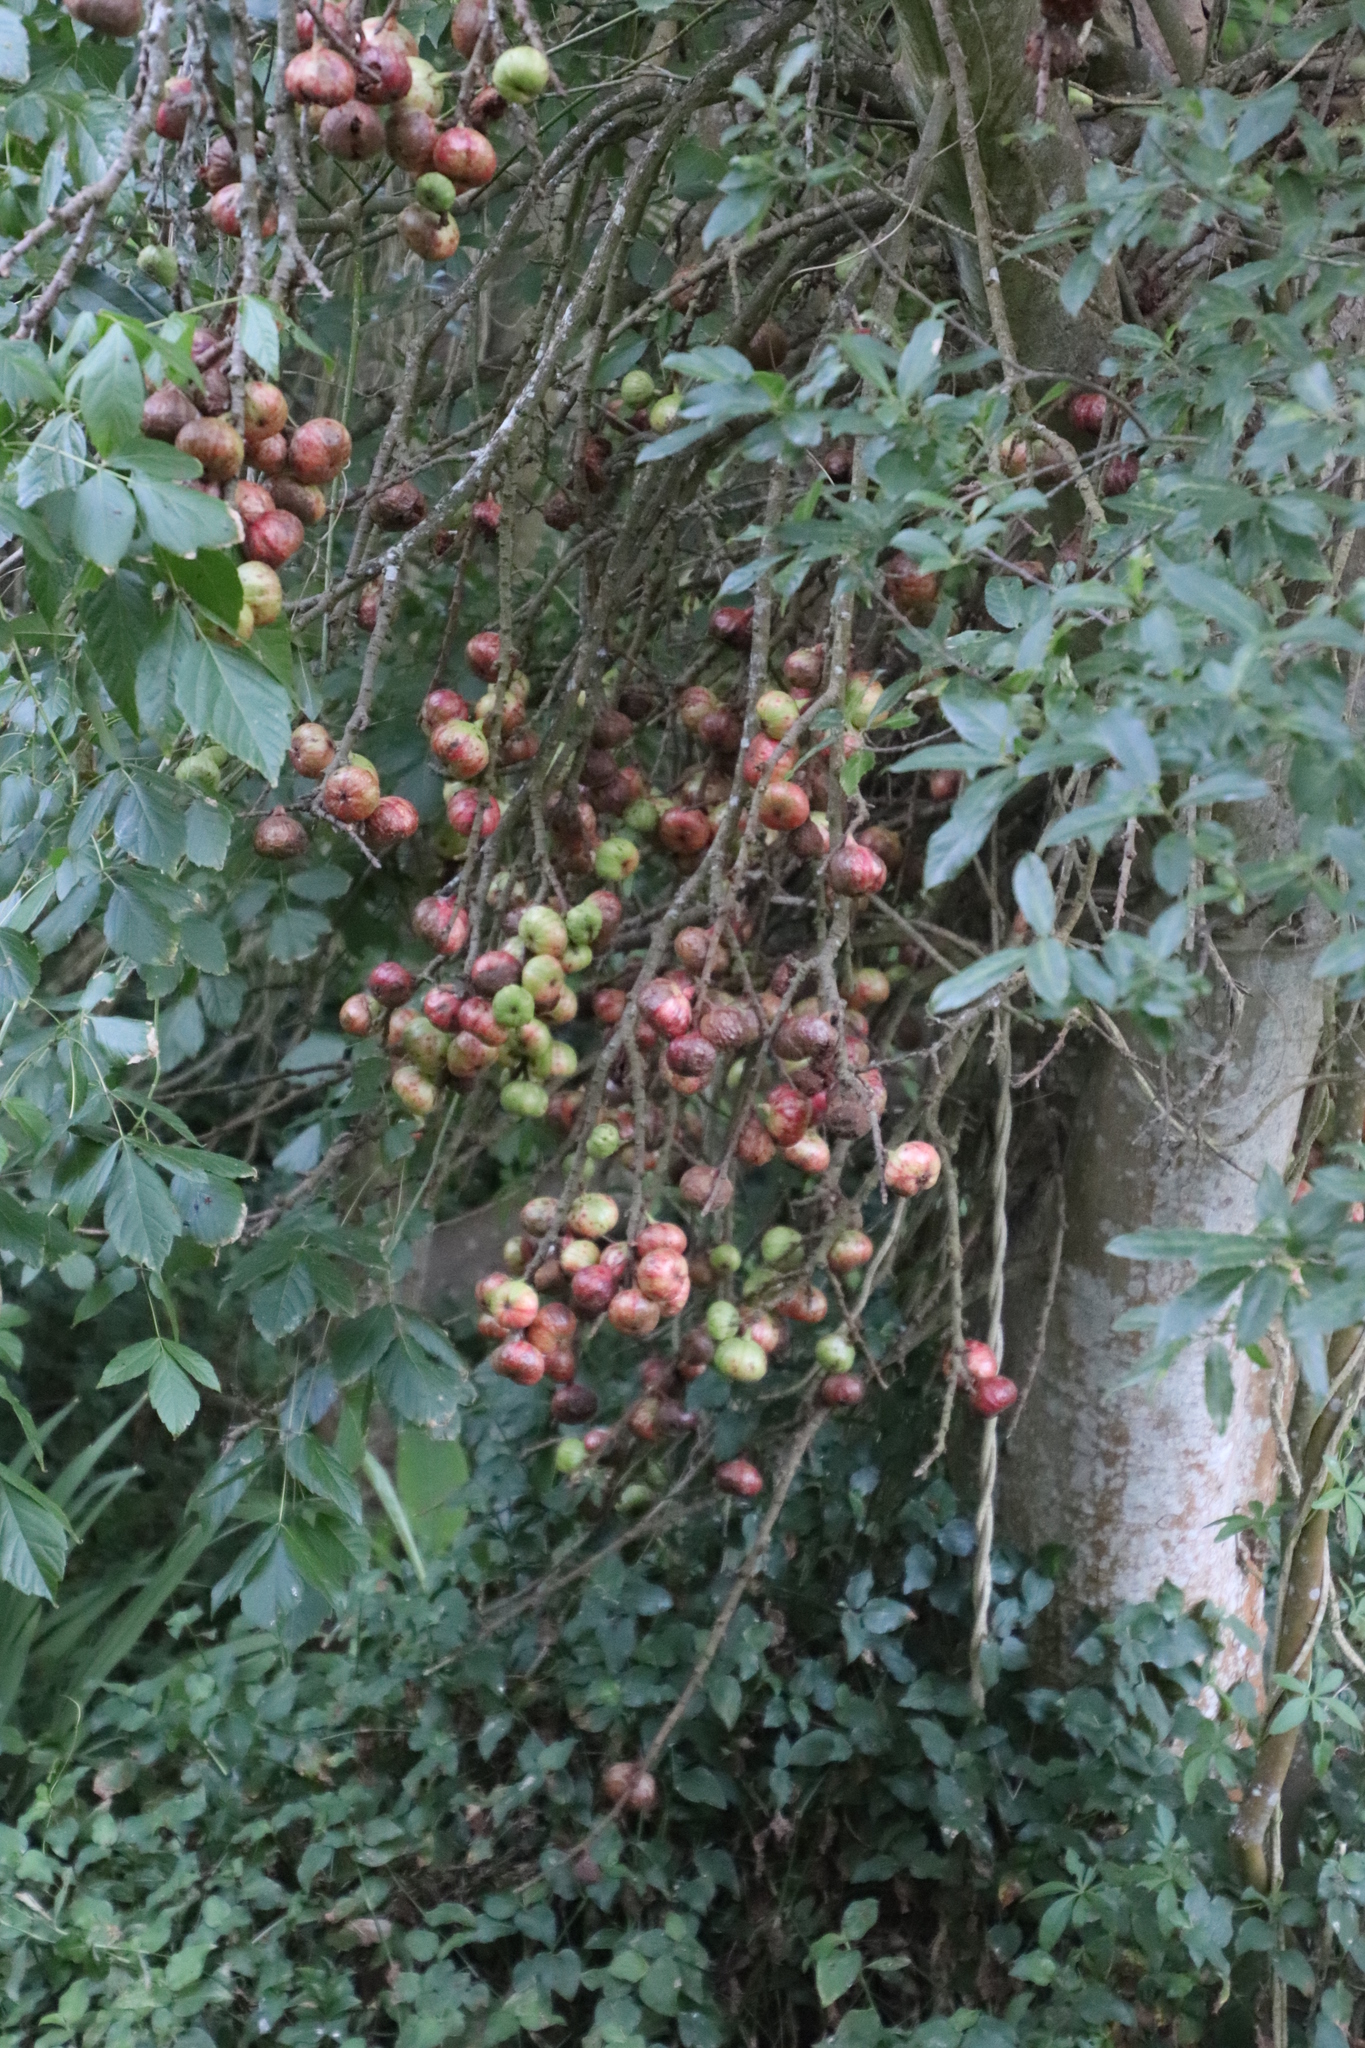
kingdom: Plantae
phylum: Tracheophyta
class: Magnoliopsida
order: Rosales
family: Moraceae
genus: Ficus
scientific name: Ficus sur
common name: Cape fig
